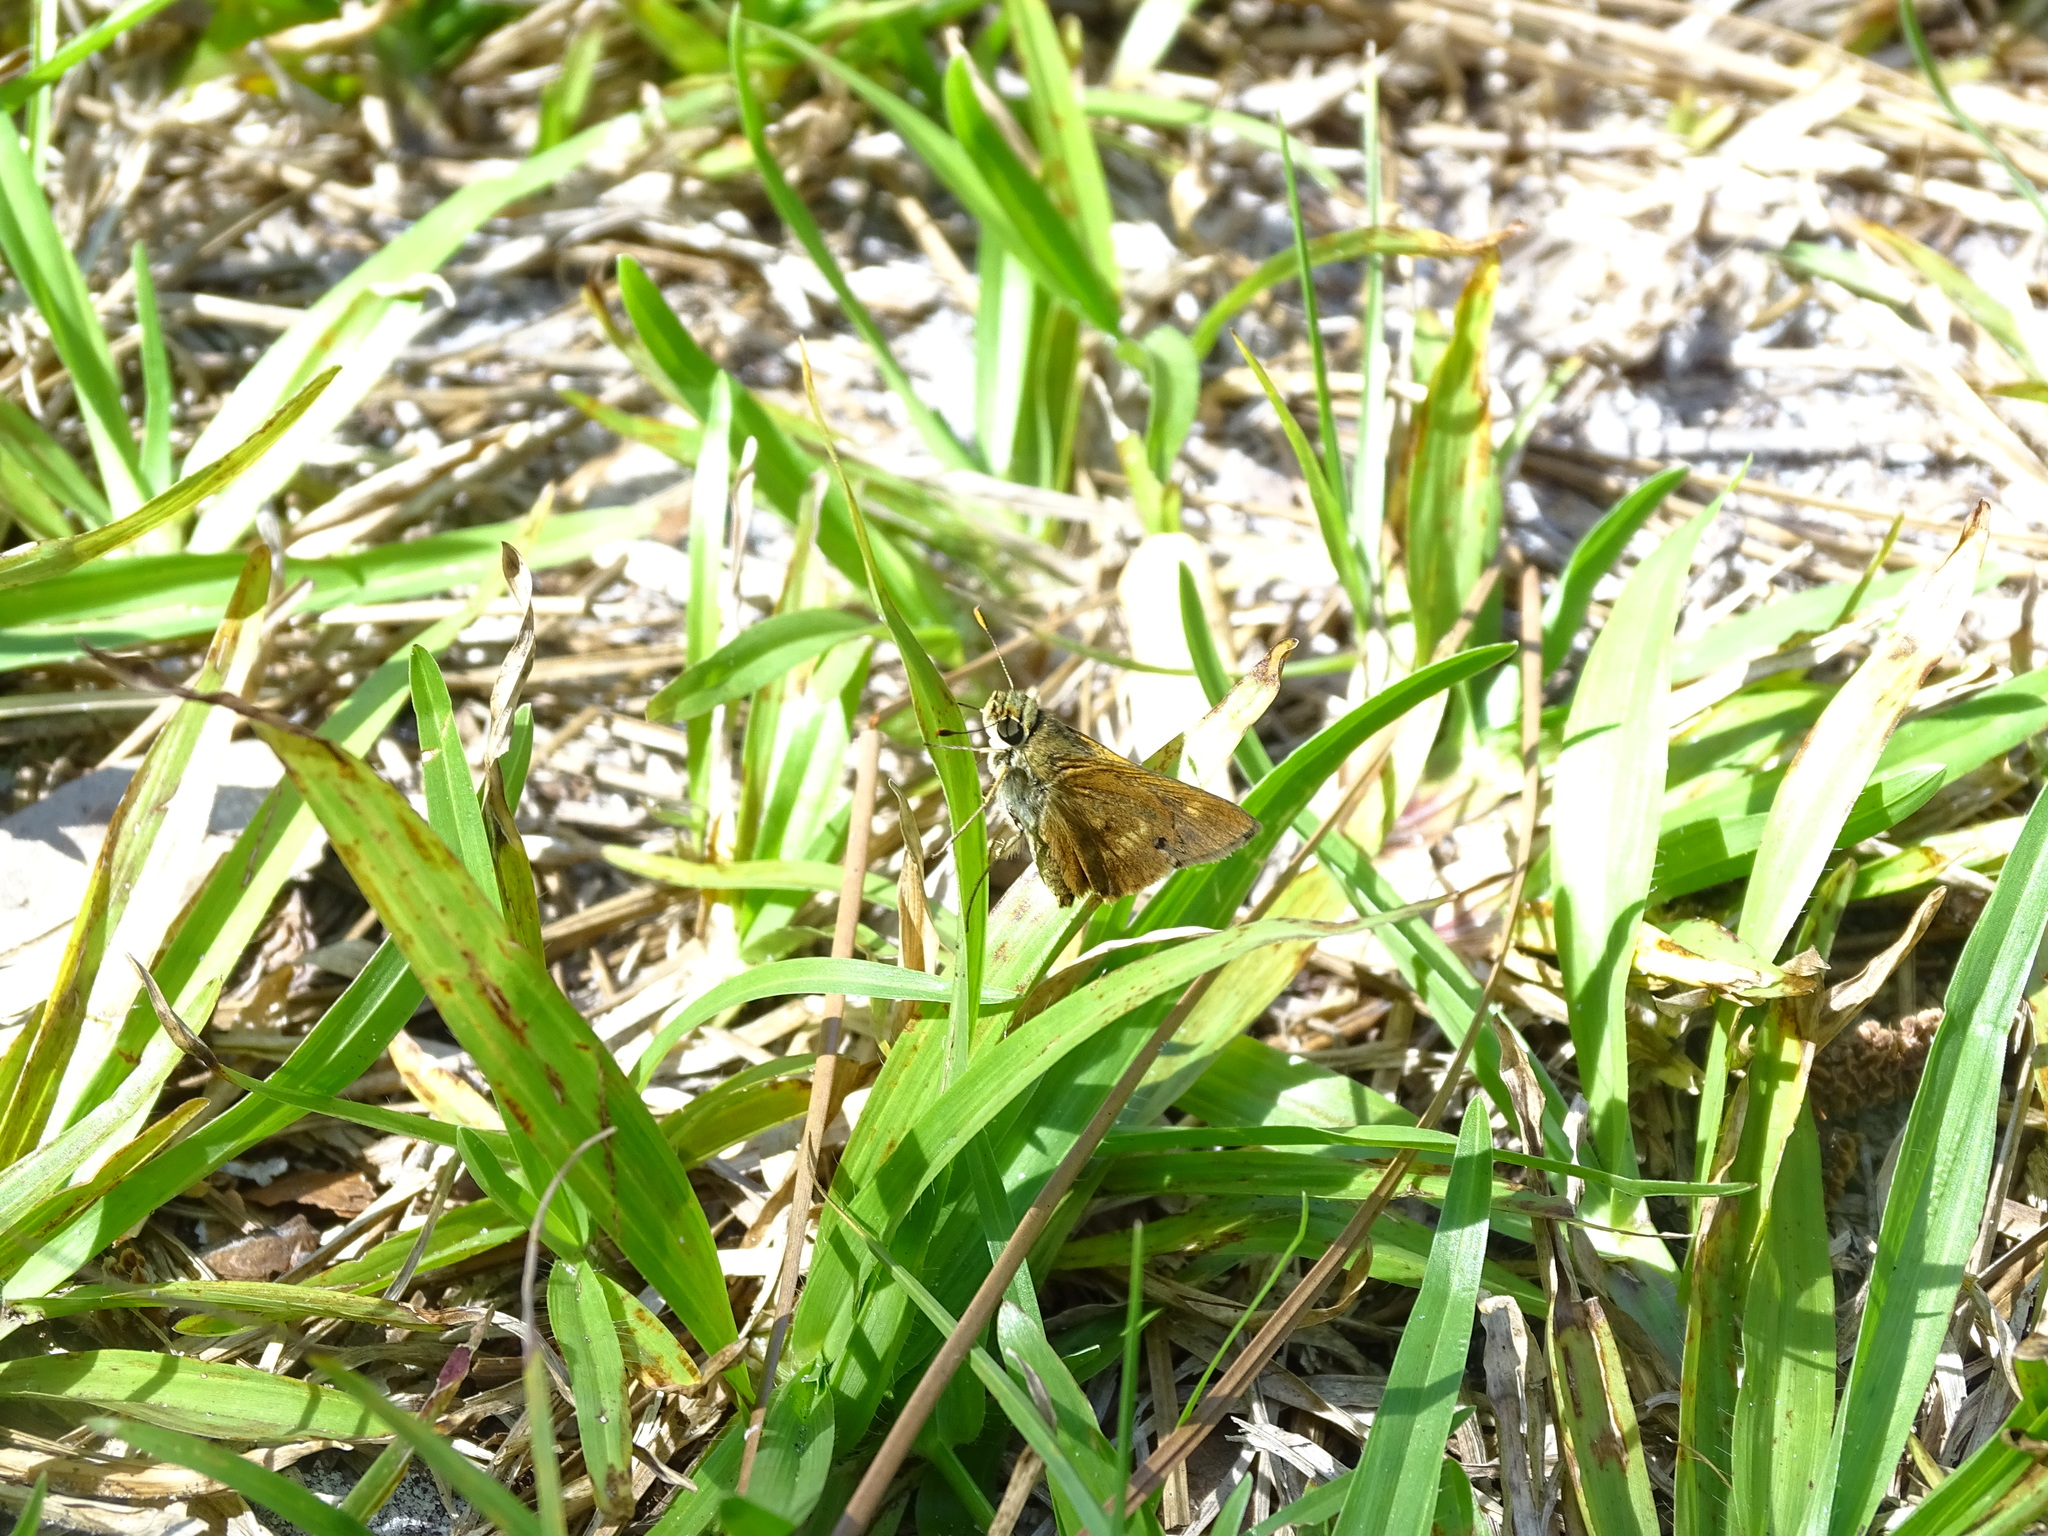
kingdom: Animalia
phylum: Arthropoda
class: Insecta
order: Lepidoptera
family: Hesperiidae
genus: Polites
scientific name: Polites otho
